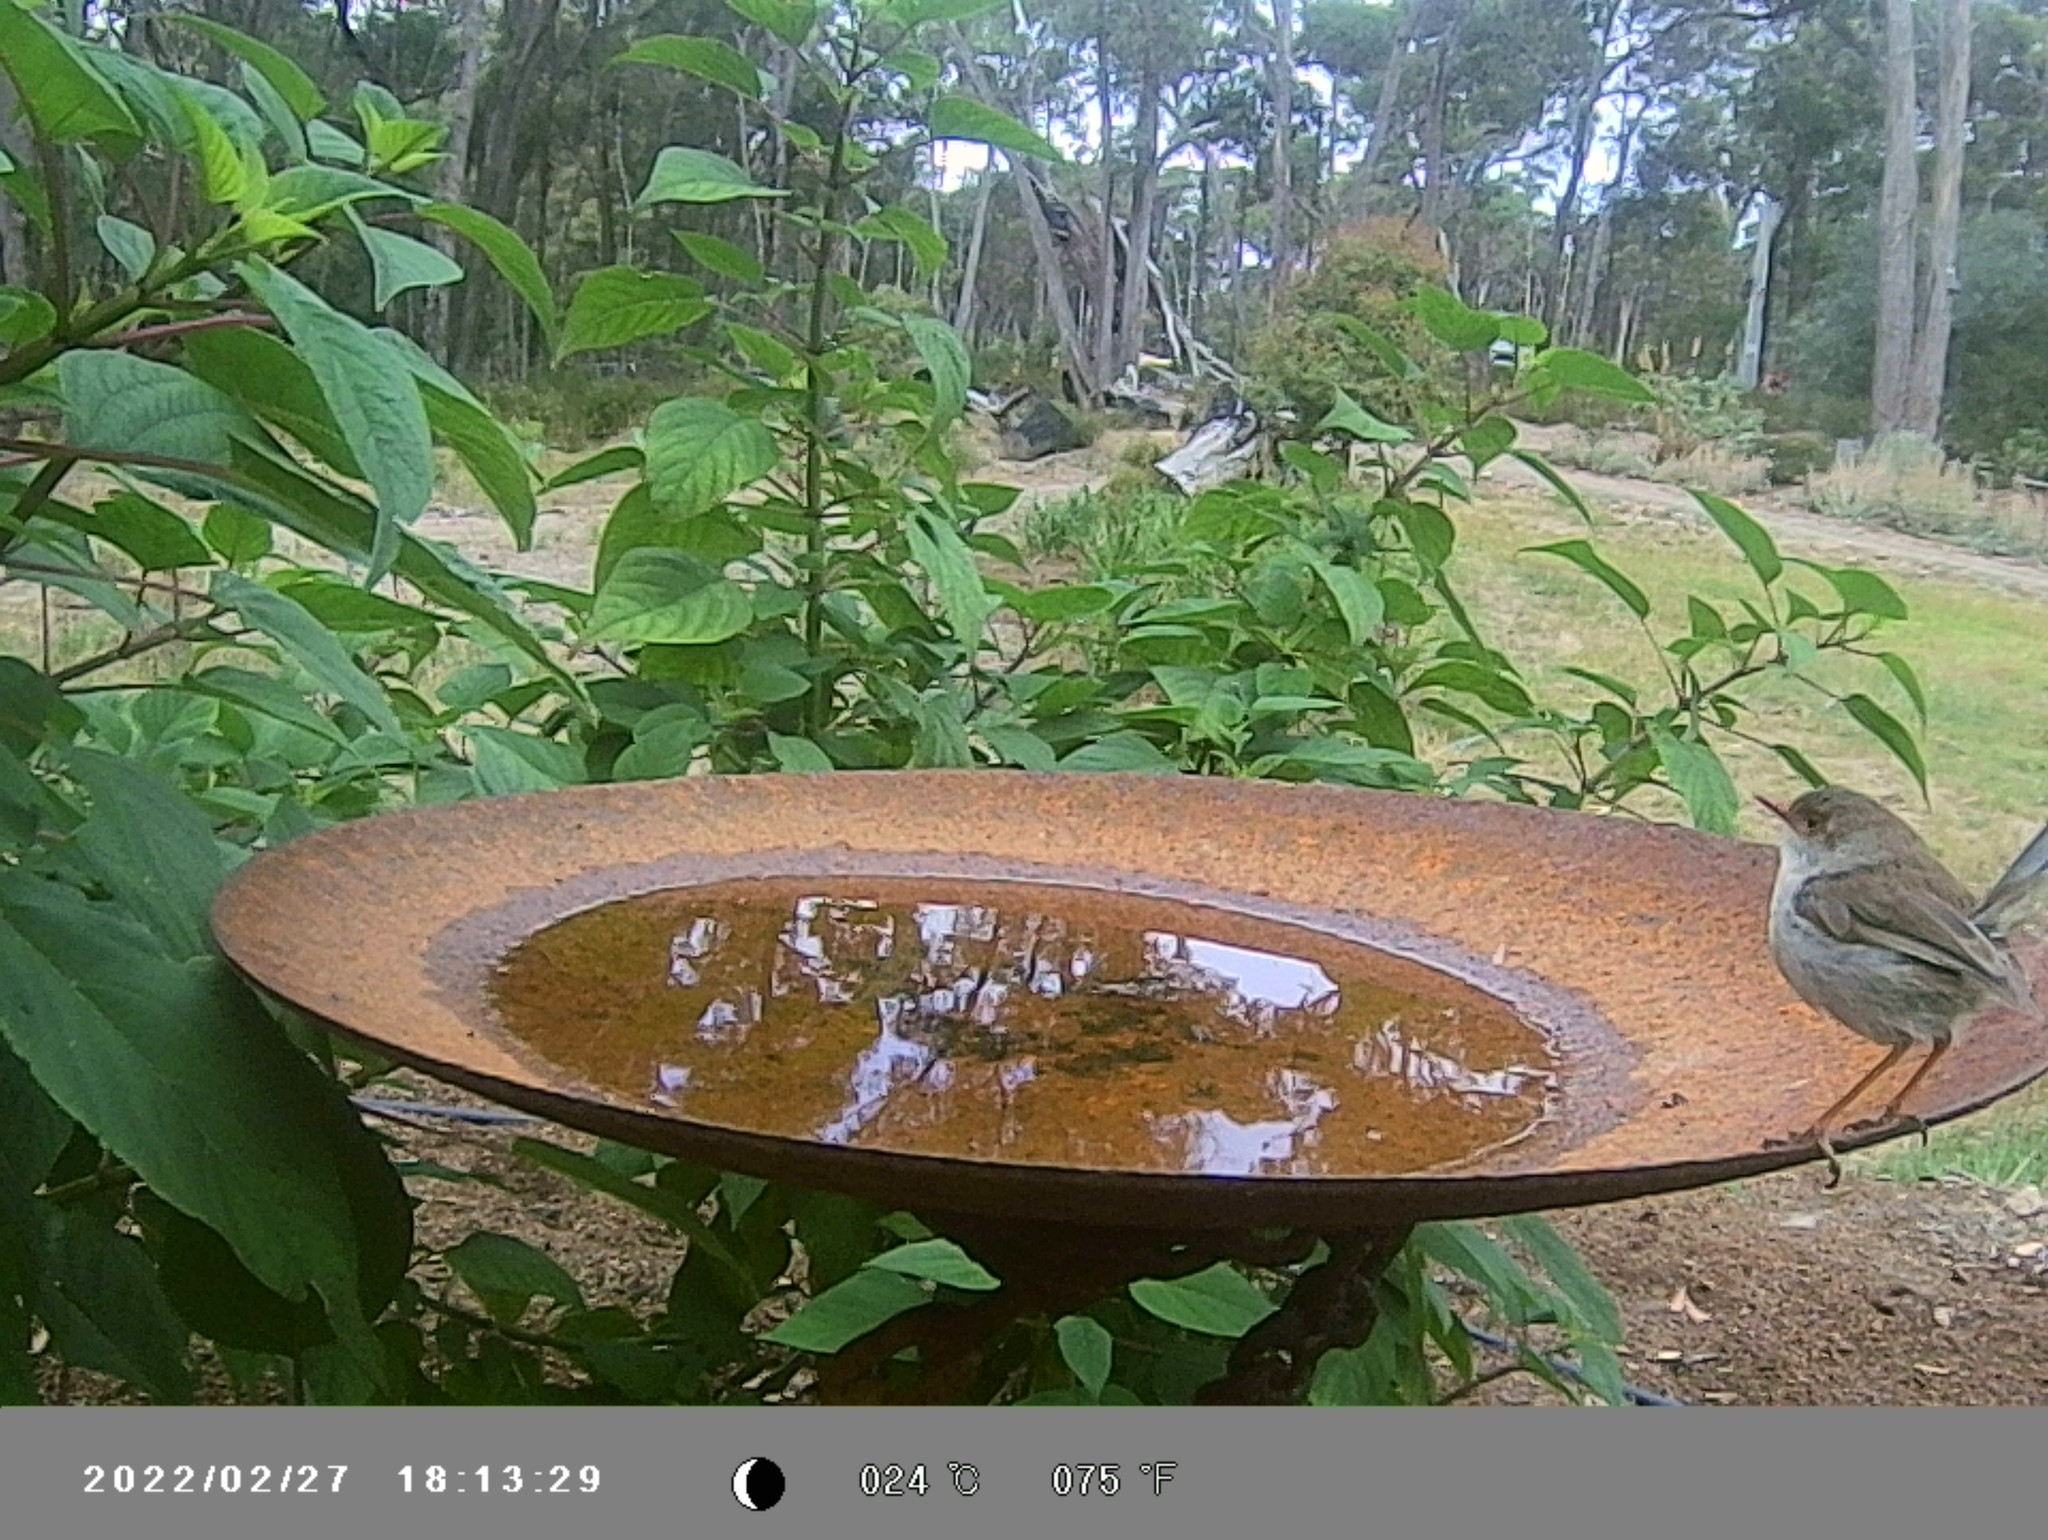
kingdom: Animalia
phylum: Chordata
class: Aves
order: Passeriformes
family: Maluridae
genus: Malurus
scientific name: Malurus cyaneus
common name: Superb fairywren
